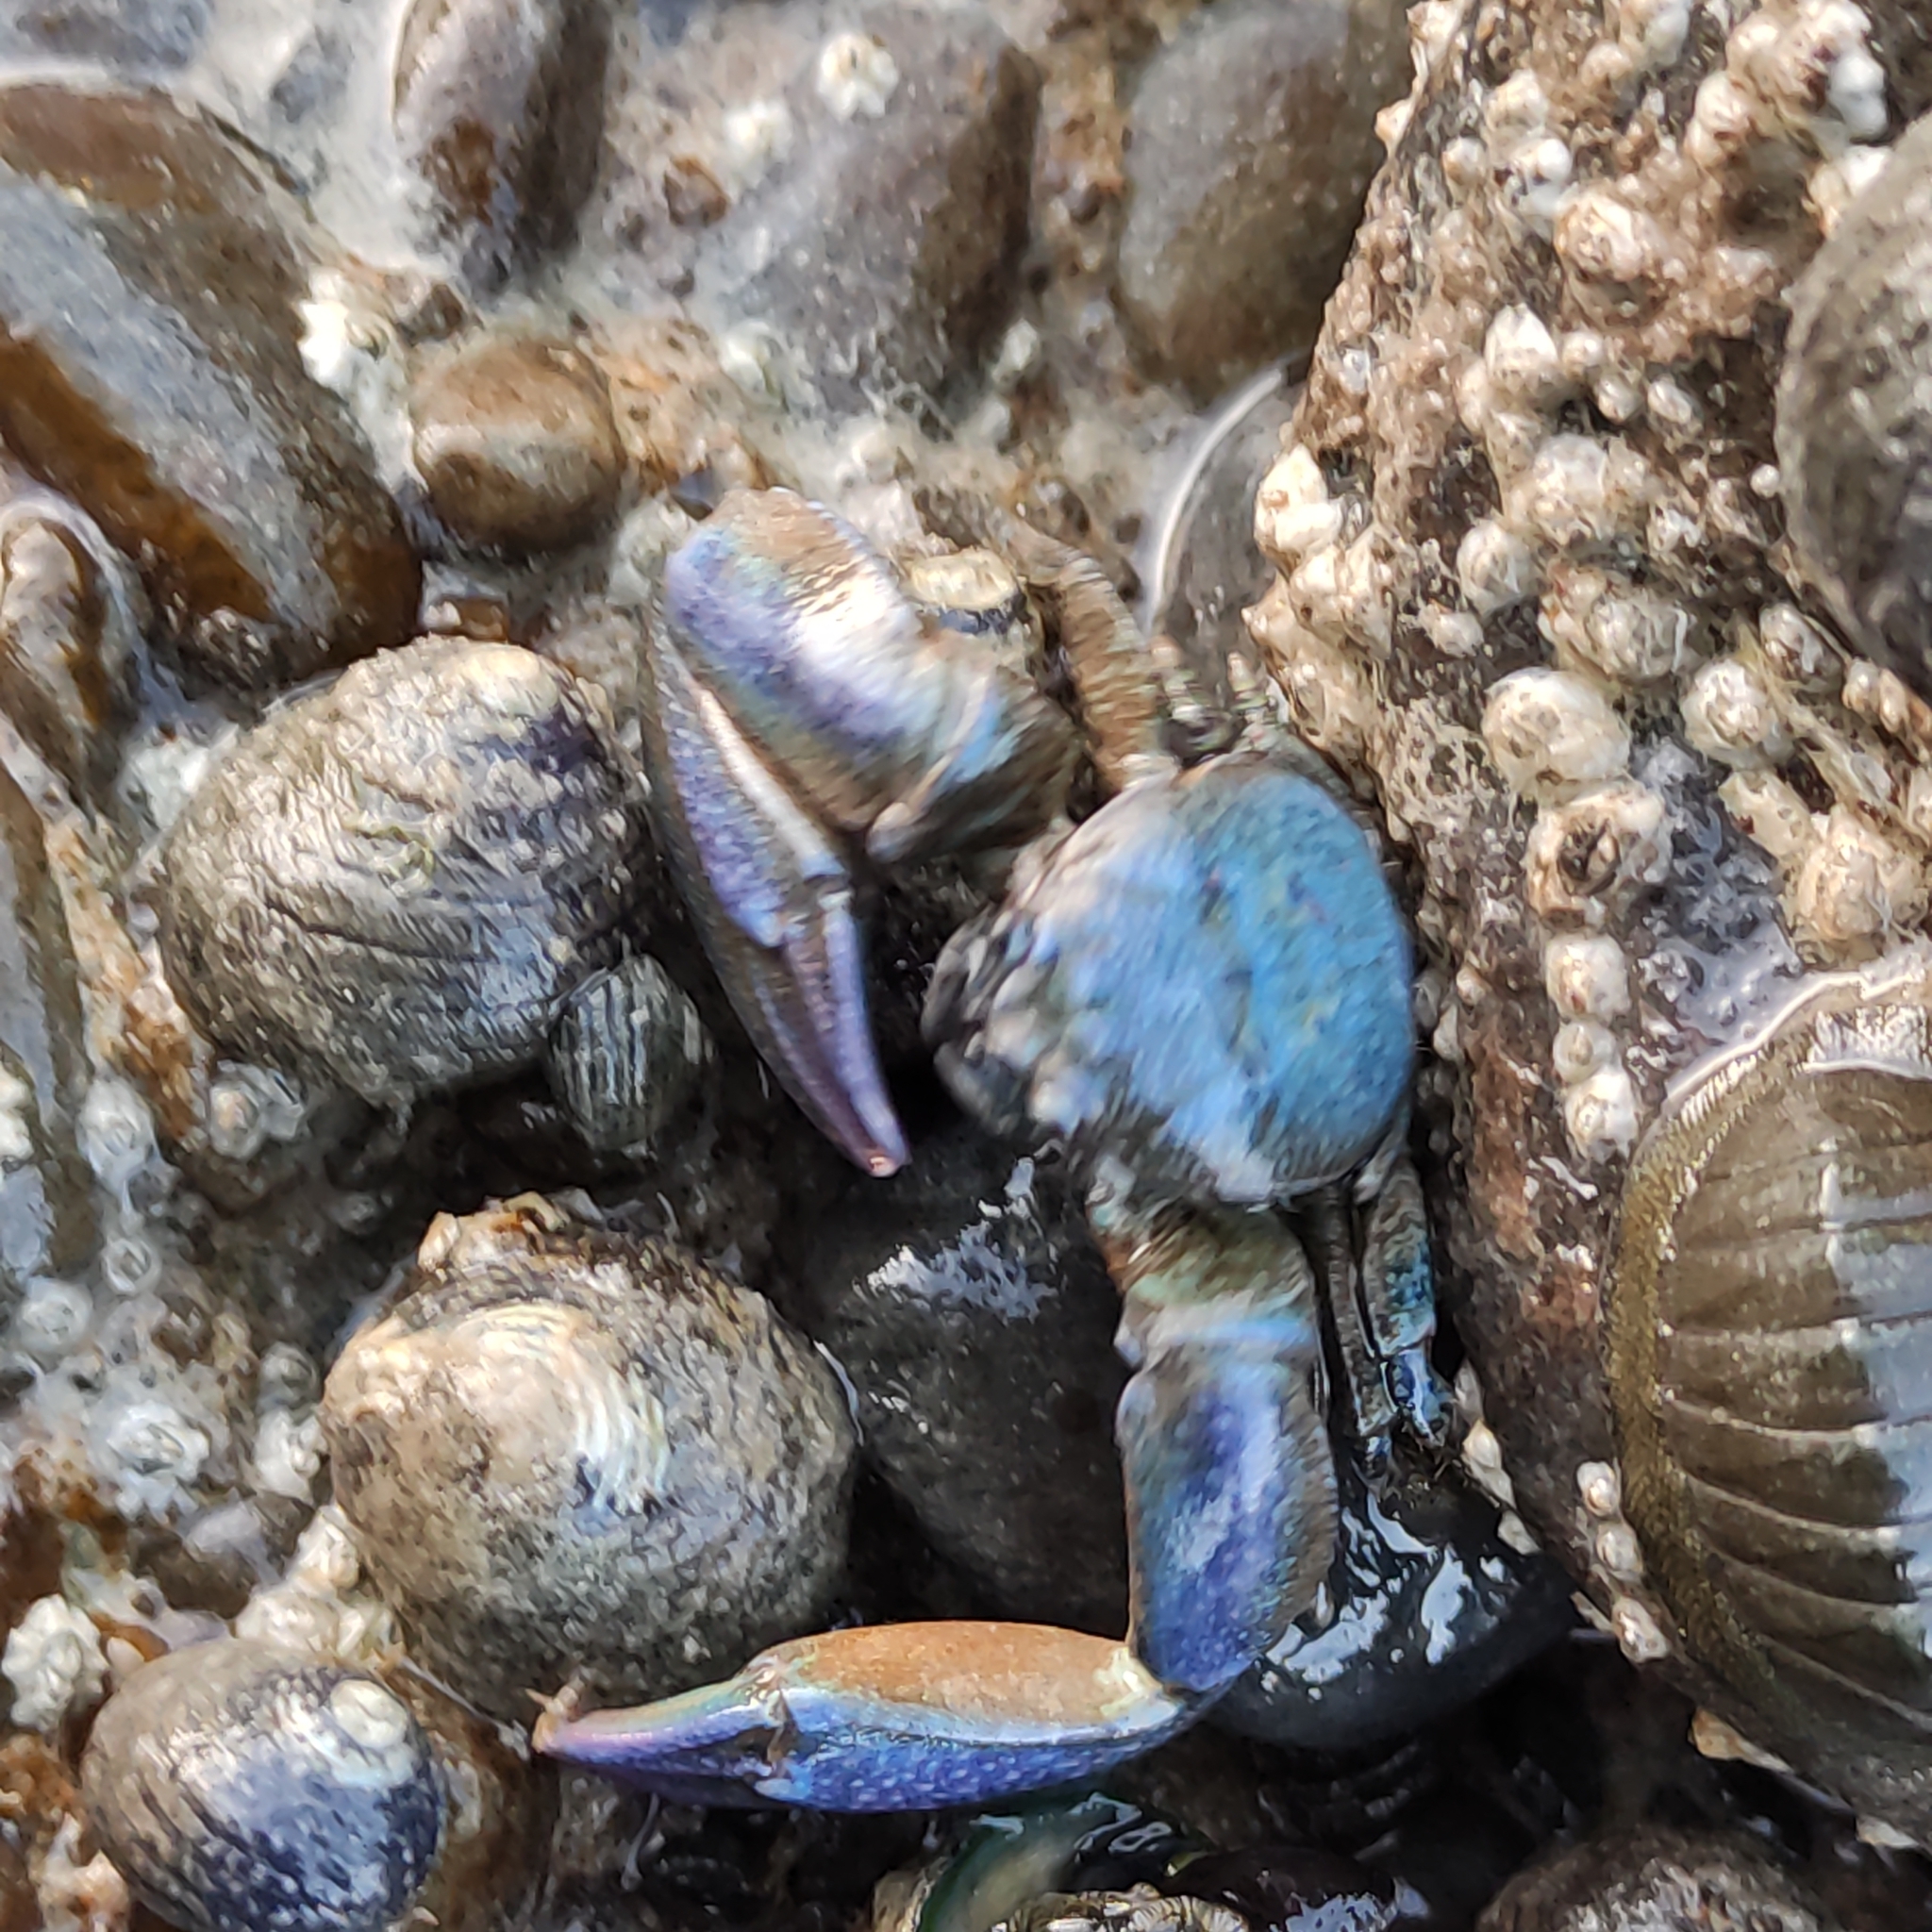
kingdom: Animalia
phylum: Arthropoda
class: Malacostraca
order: Decapoda
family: Porcellanidae
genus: Petrolisthes
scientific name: Petrolisthes elongatus
